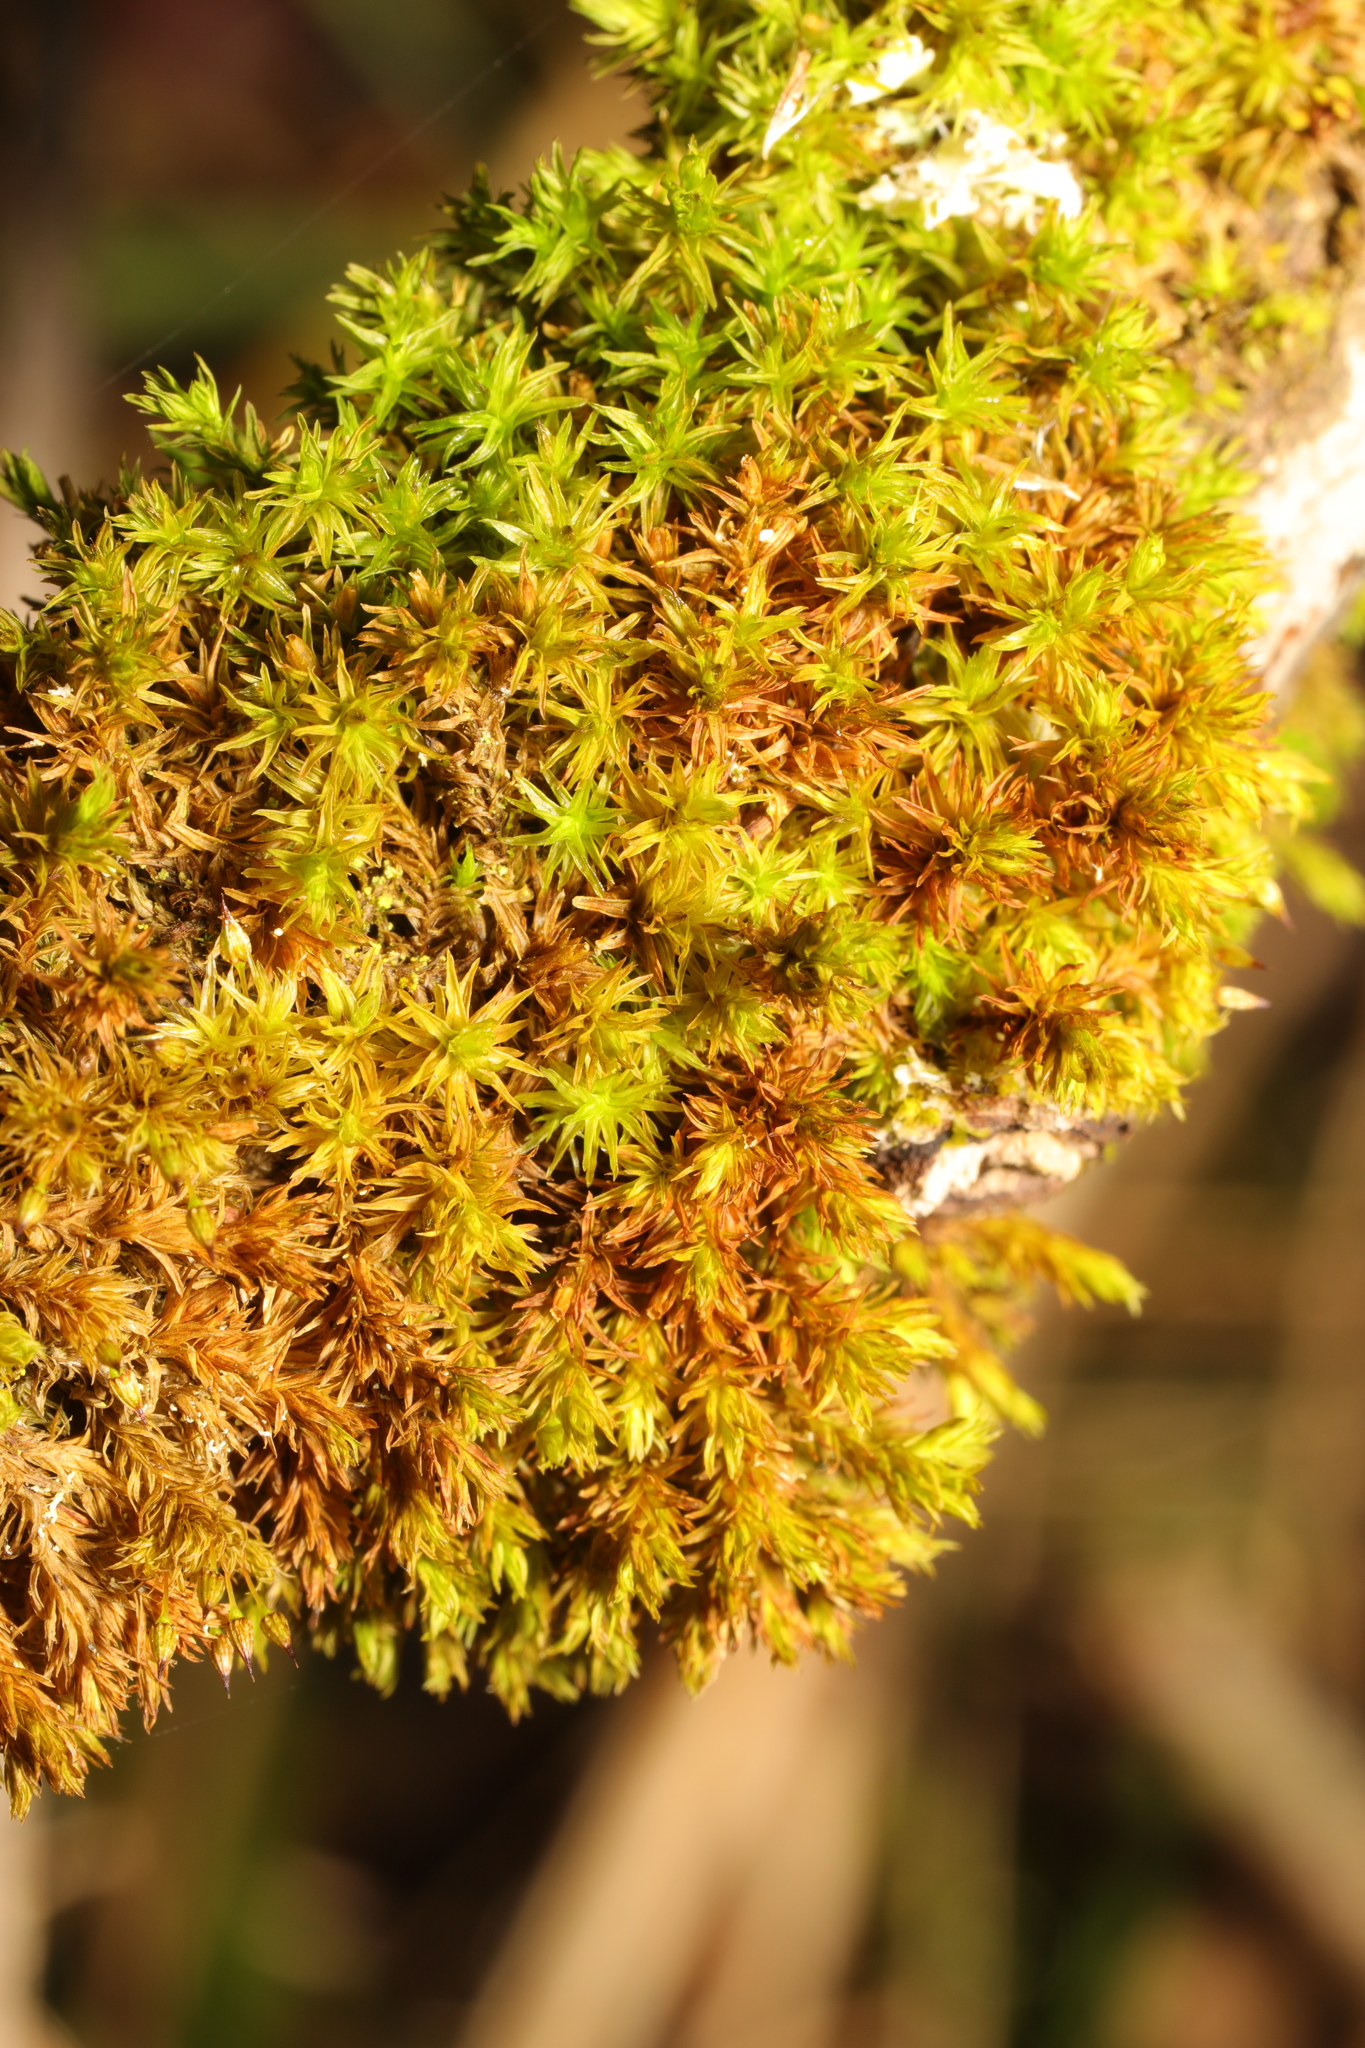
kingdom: Plantae
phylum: Bryophyta
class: Bryopsida
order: Orthotrichales
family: Orthotrichaceae
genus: Lewinskya
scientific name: Lewinskya affinis
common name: Wood bristle-moss
